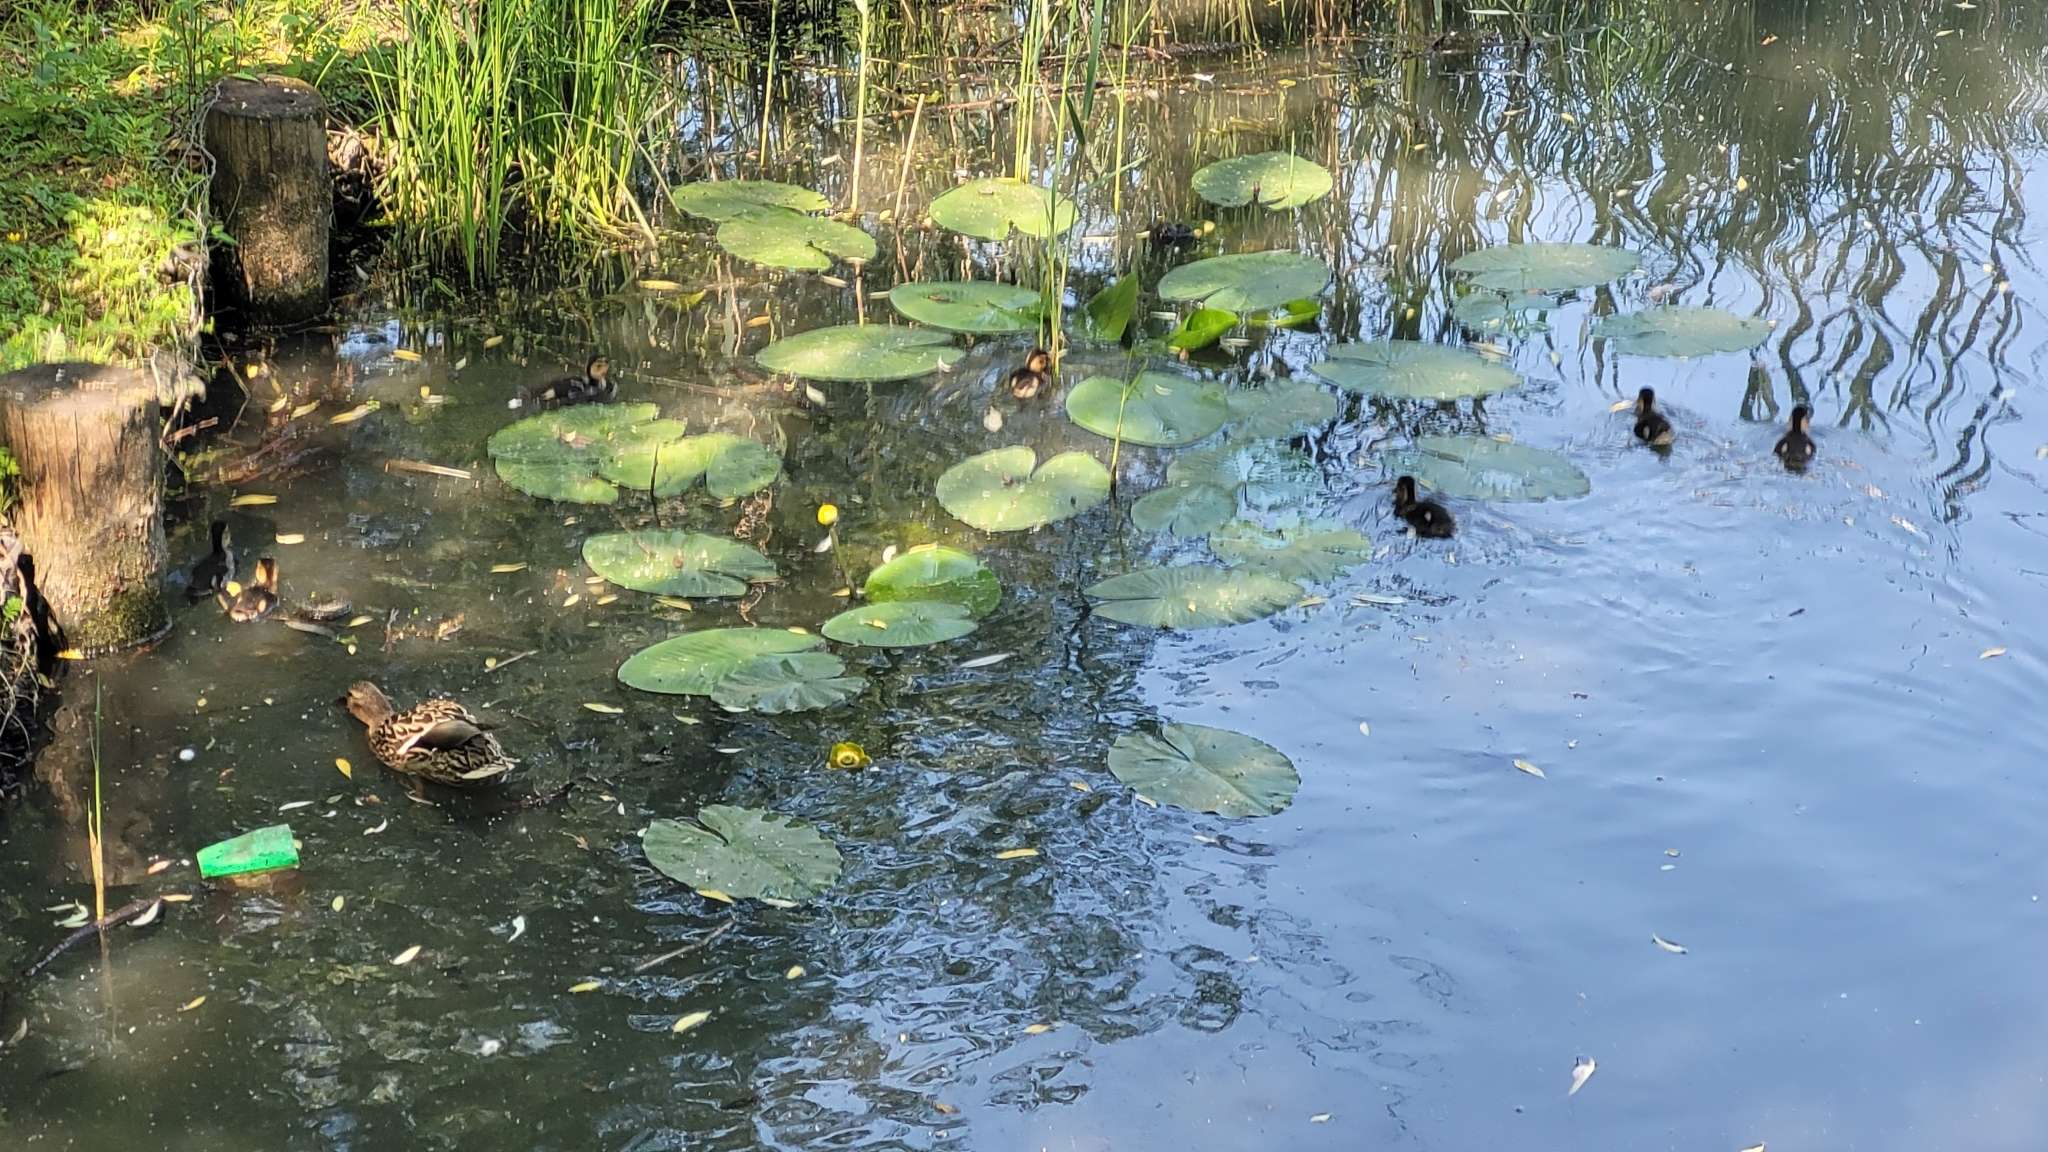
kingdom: Animalia
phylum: Chordata
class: Aves
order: Anseriformes
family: Anatidae
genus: Anas
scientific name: Anas platyrhynchos
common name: Mallard
